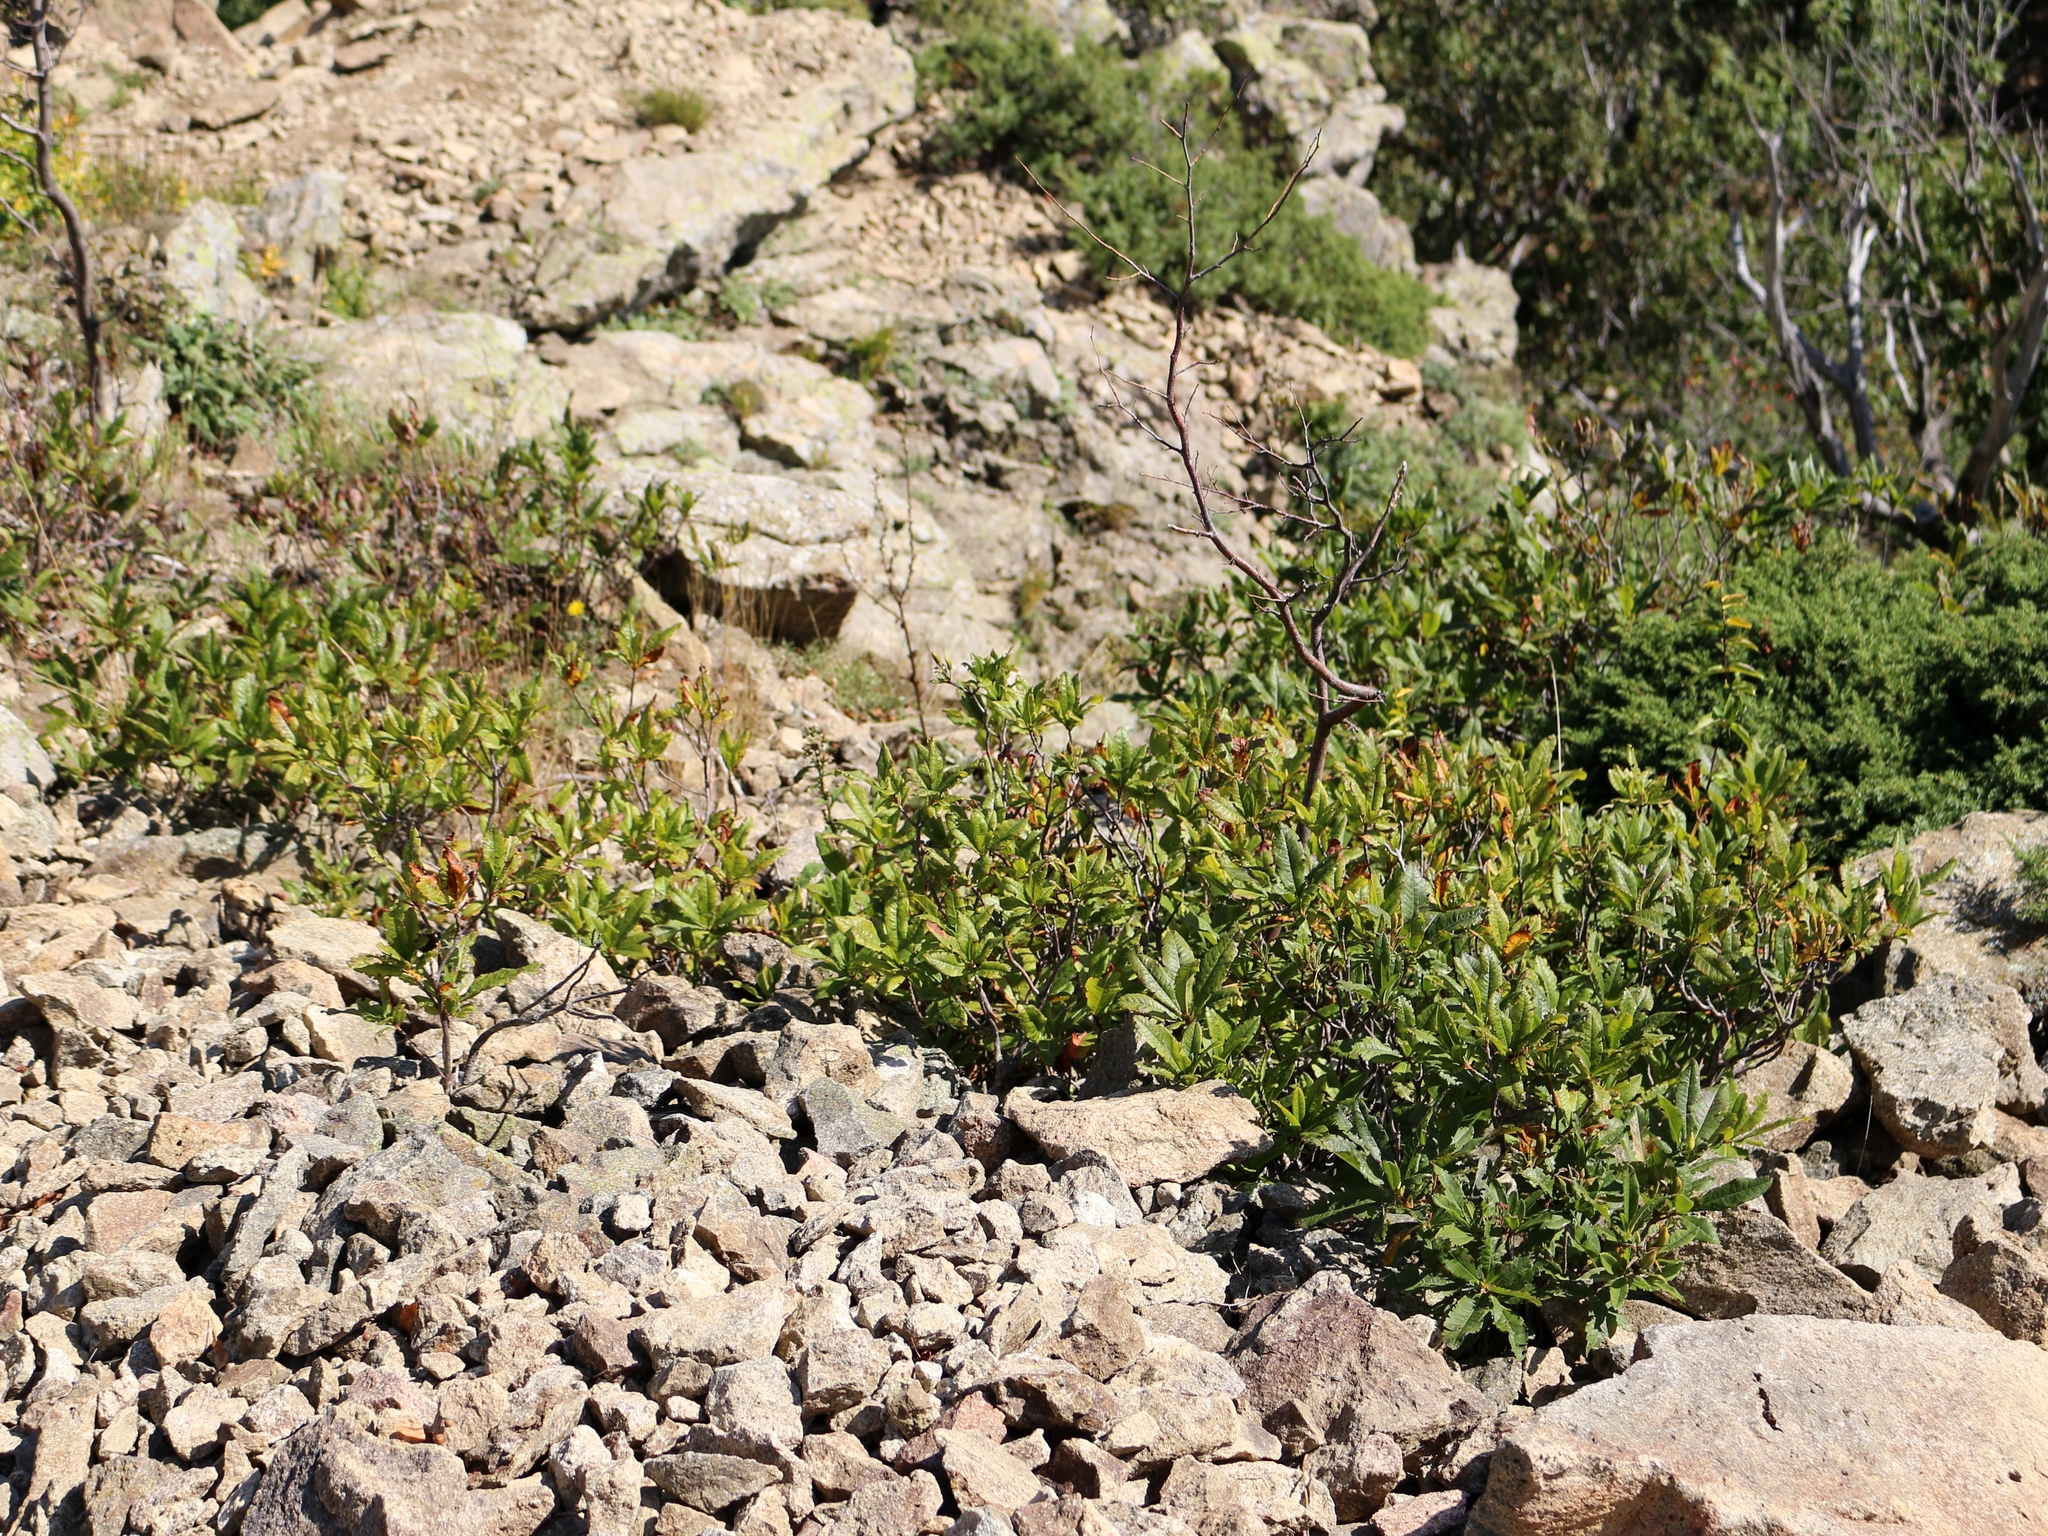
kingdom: Plantae
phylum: Tracheophyta
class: Magnoliopsida
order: Ericales
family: Ericaceae
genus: Rhododendron
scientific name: Rhododendron luteum
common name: Yellow azalea
